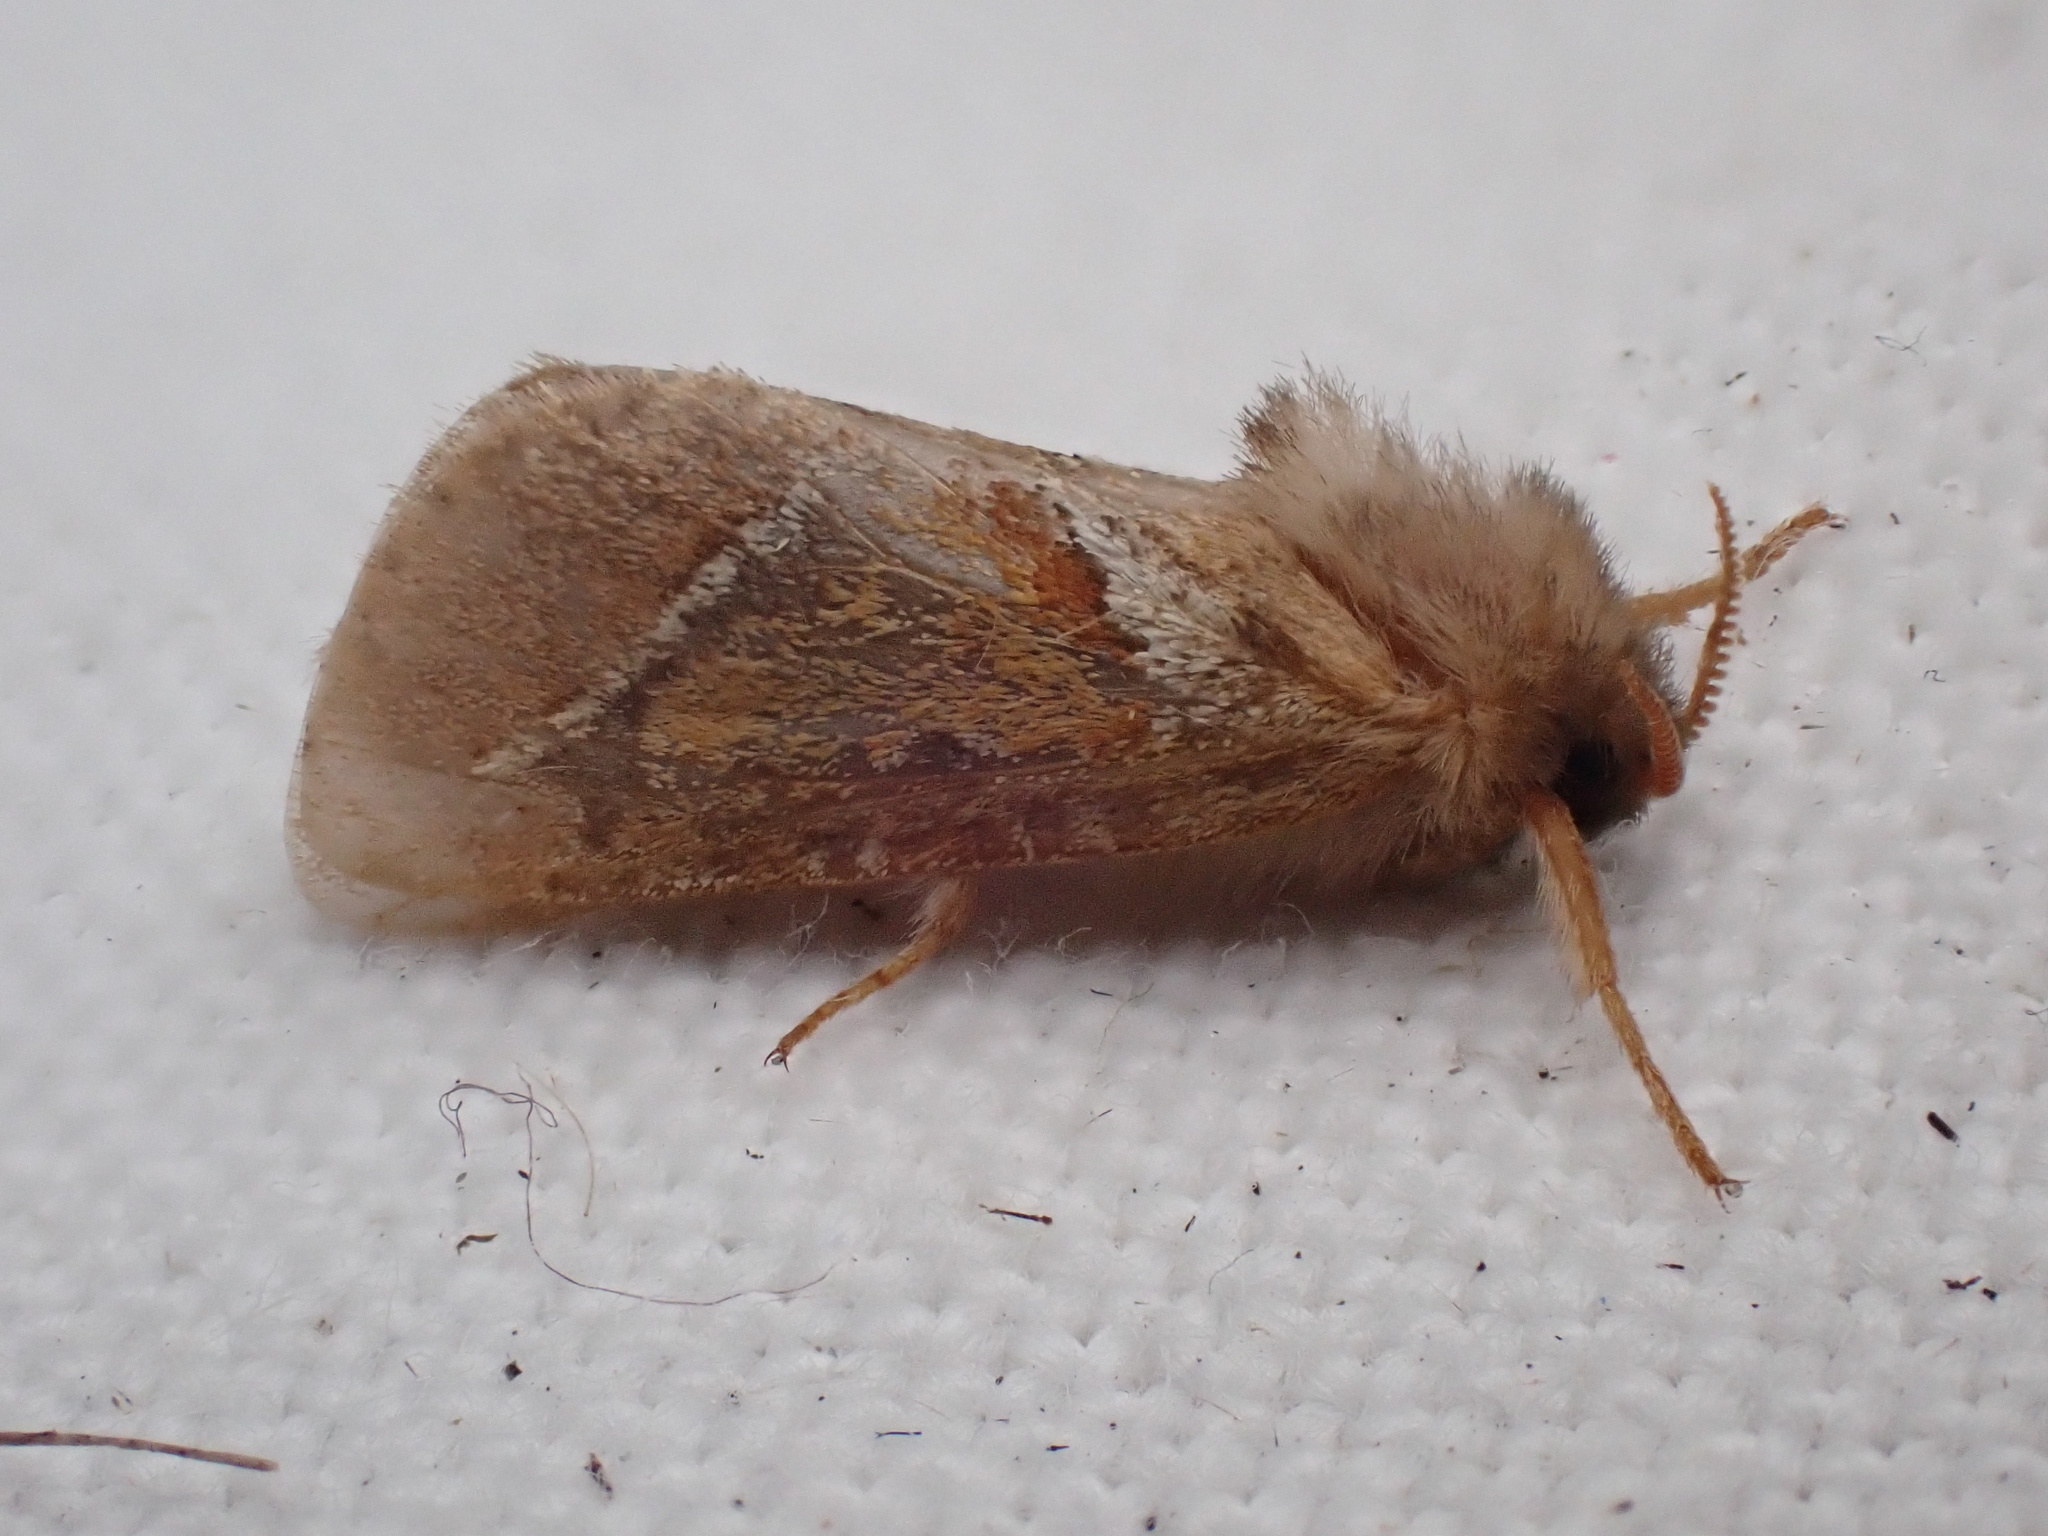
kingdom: Animalia
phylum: Arthropoda
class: Insecta
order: Lepidoptera
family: Hepialidae
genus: Triodia
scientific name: Triodia sylvina
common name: Orange swift
